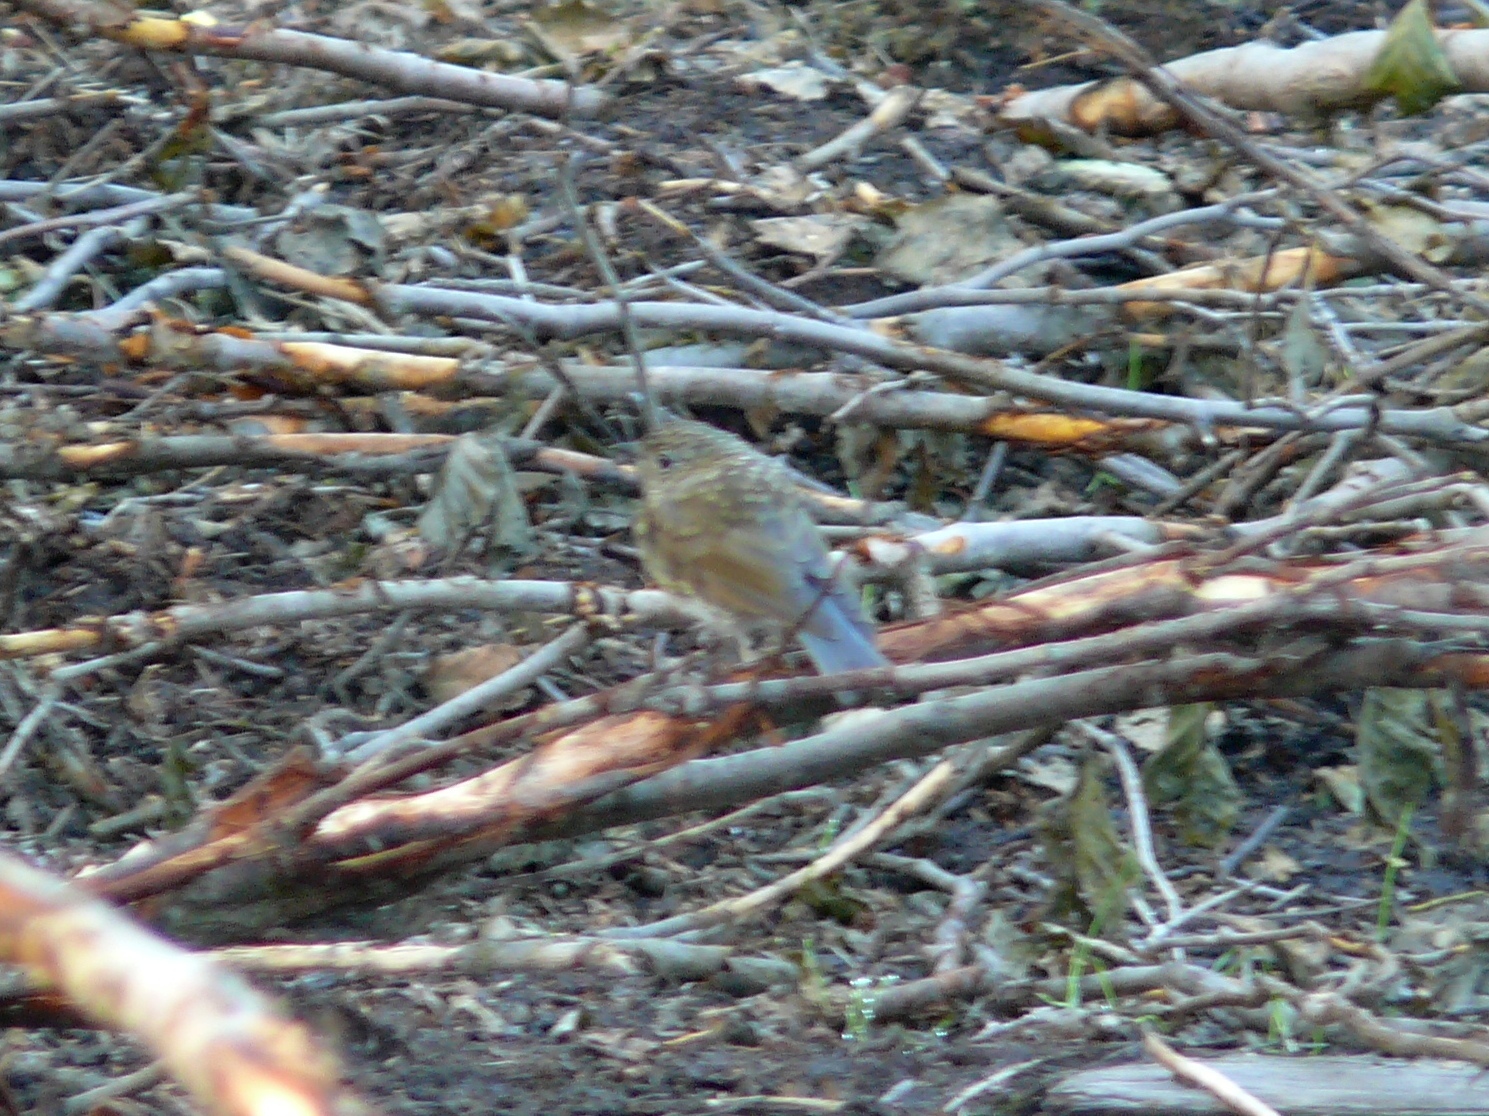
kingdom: Animalia
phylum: Chordata
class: Aves
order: Passeriformes
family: Muscicapidae
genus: Tarsiger
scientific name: Tarsiger cyanurus
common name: Red-flanked bluetail
